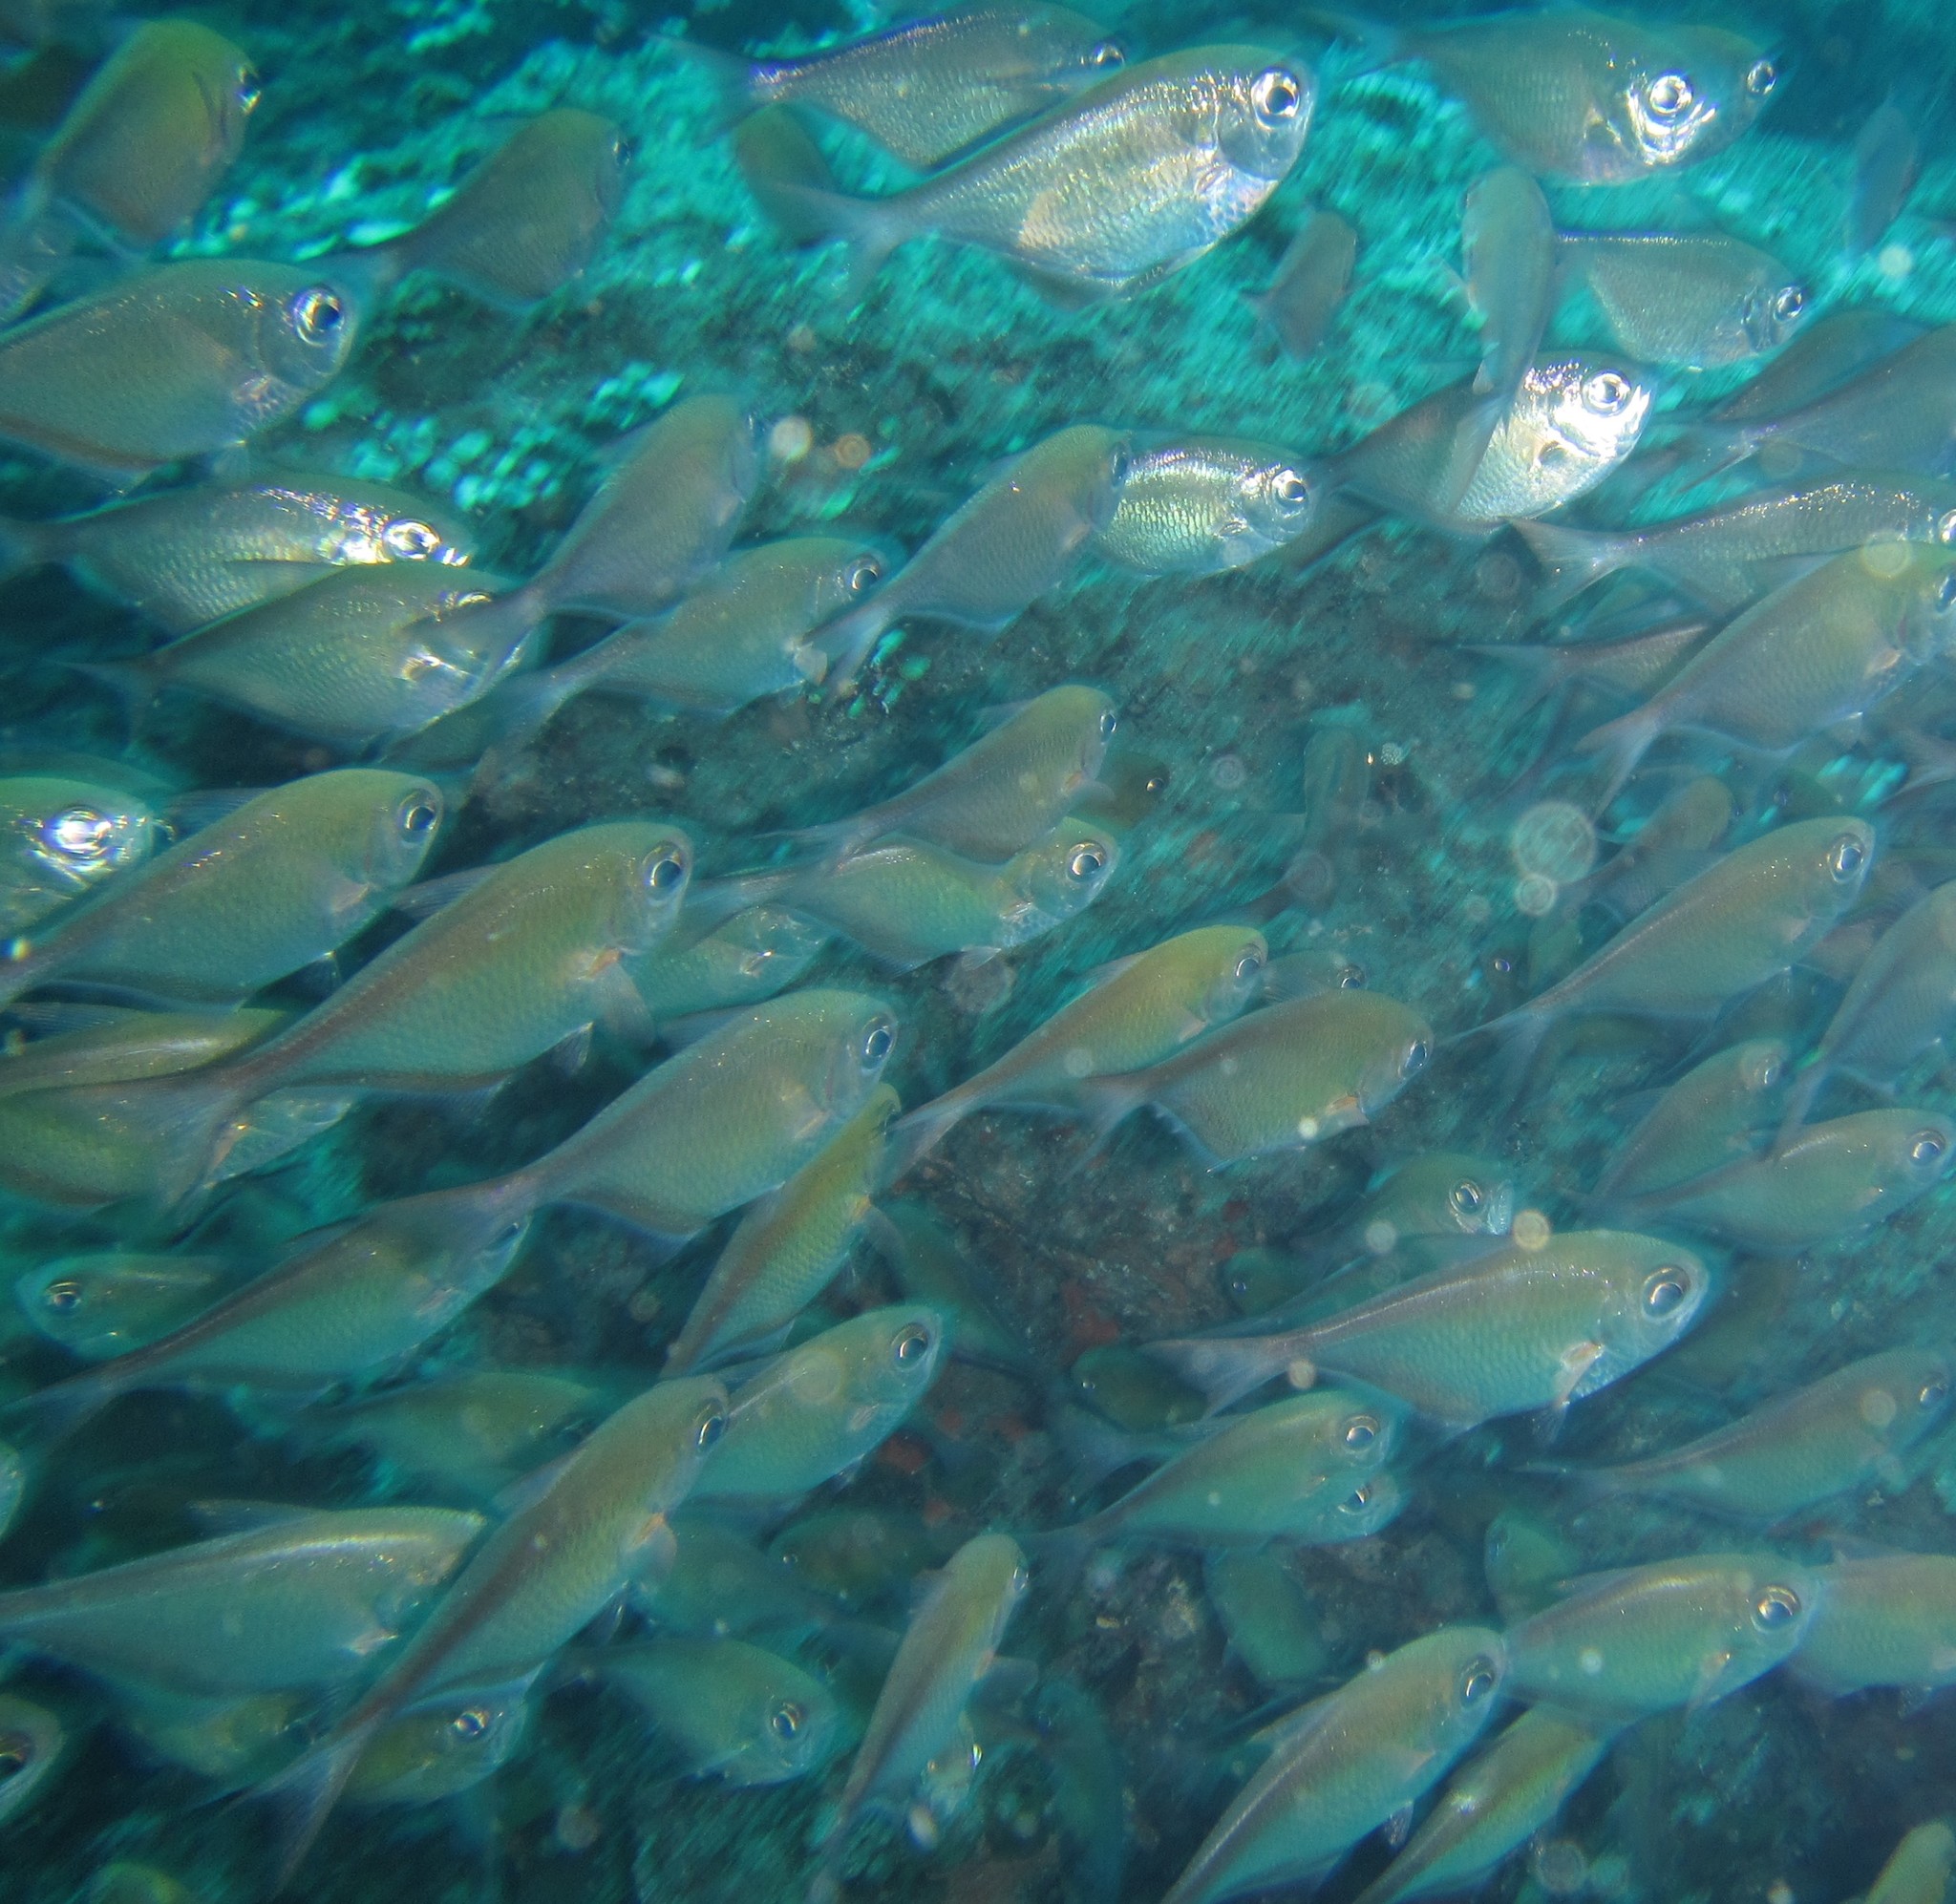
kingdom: Animalia
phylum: Chordata
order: Perciformes
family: Pempheridae
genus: Pempheris
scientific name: Pempheris schwenkii
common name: Silver bullseye
